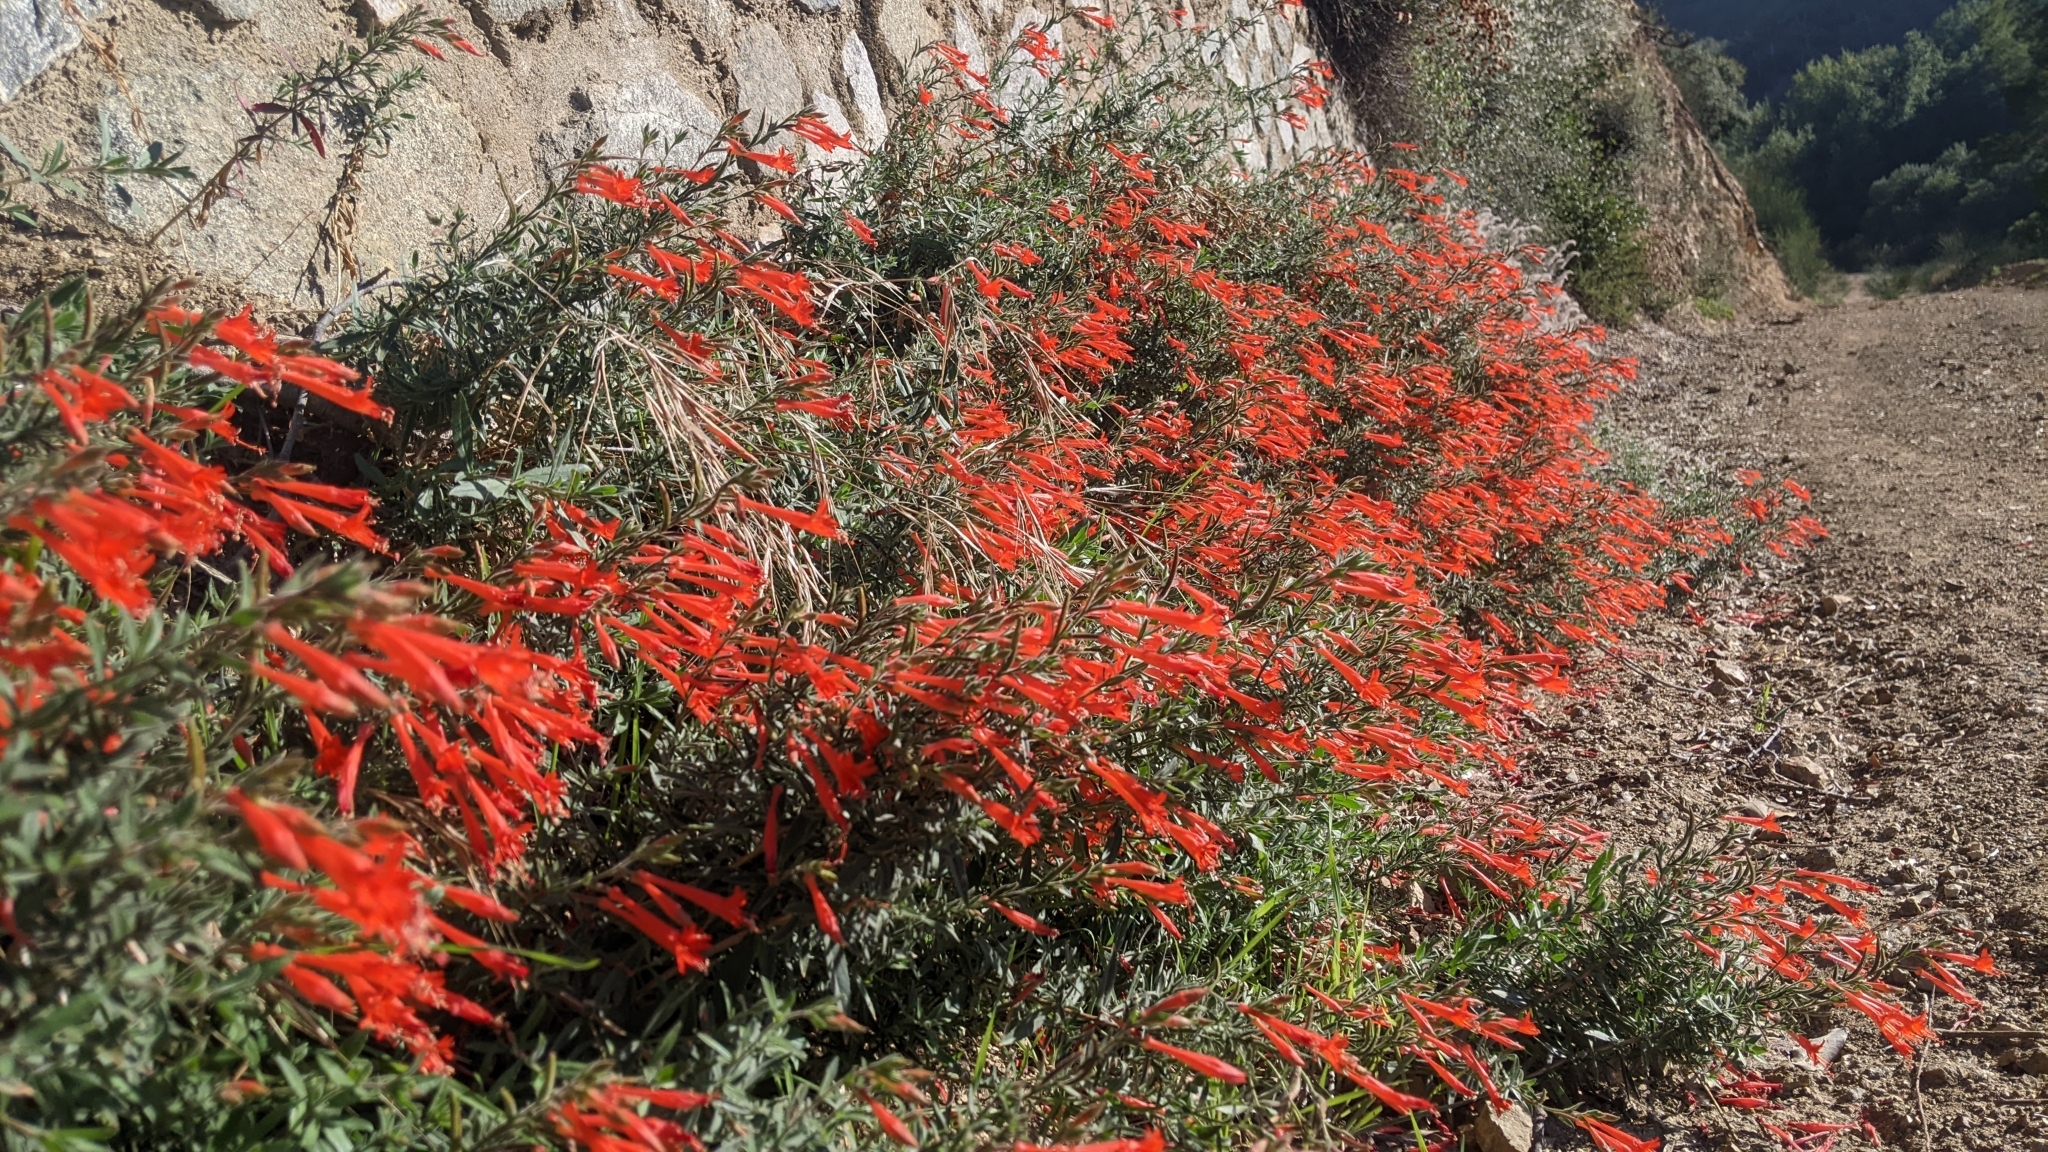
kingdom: Plantae
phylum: Tracheophyta
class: Magnoliopsida
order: Myrtales
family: Onagraceae
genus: Epilobium
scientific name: Epilobium canum
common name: California-fuchsia
